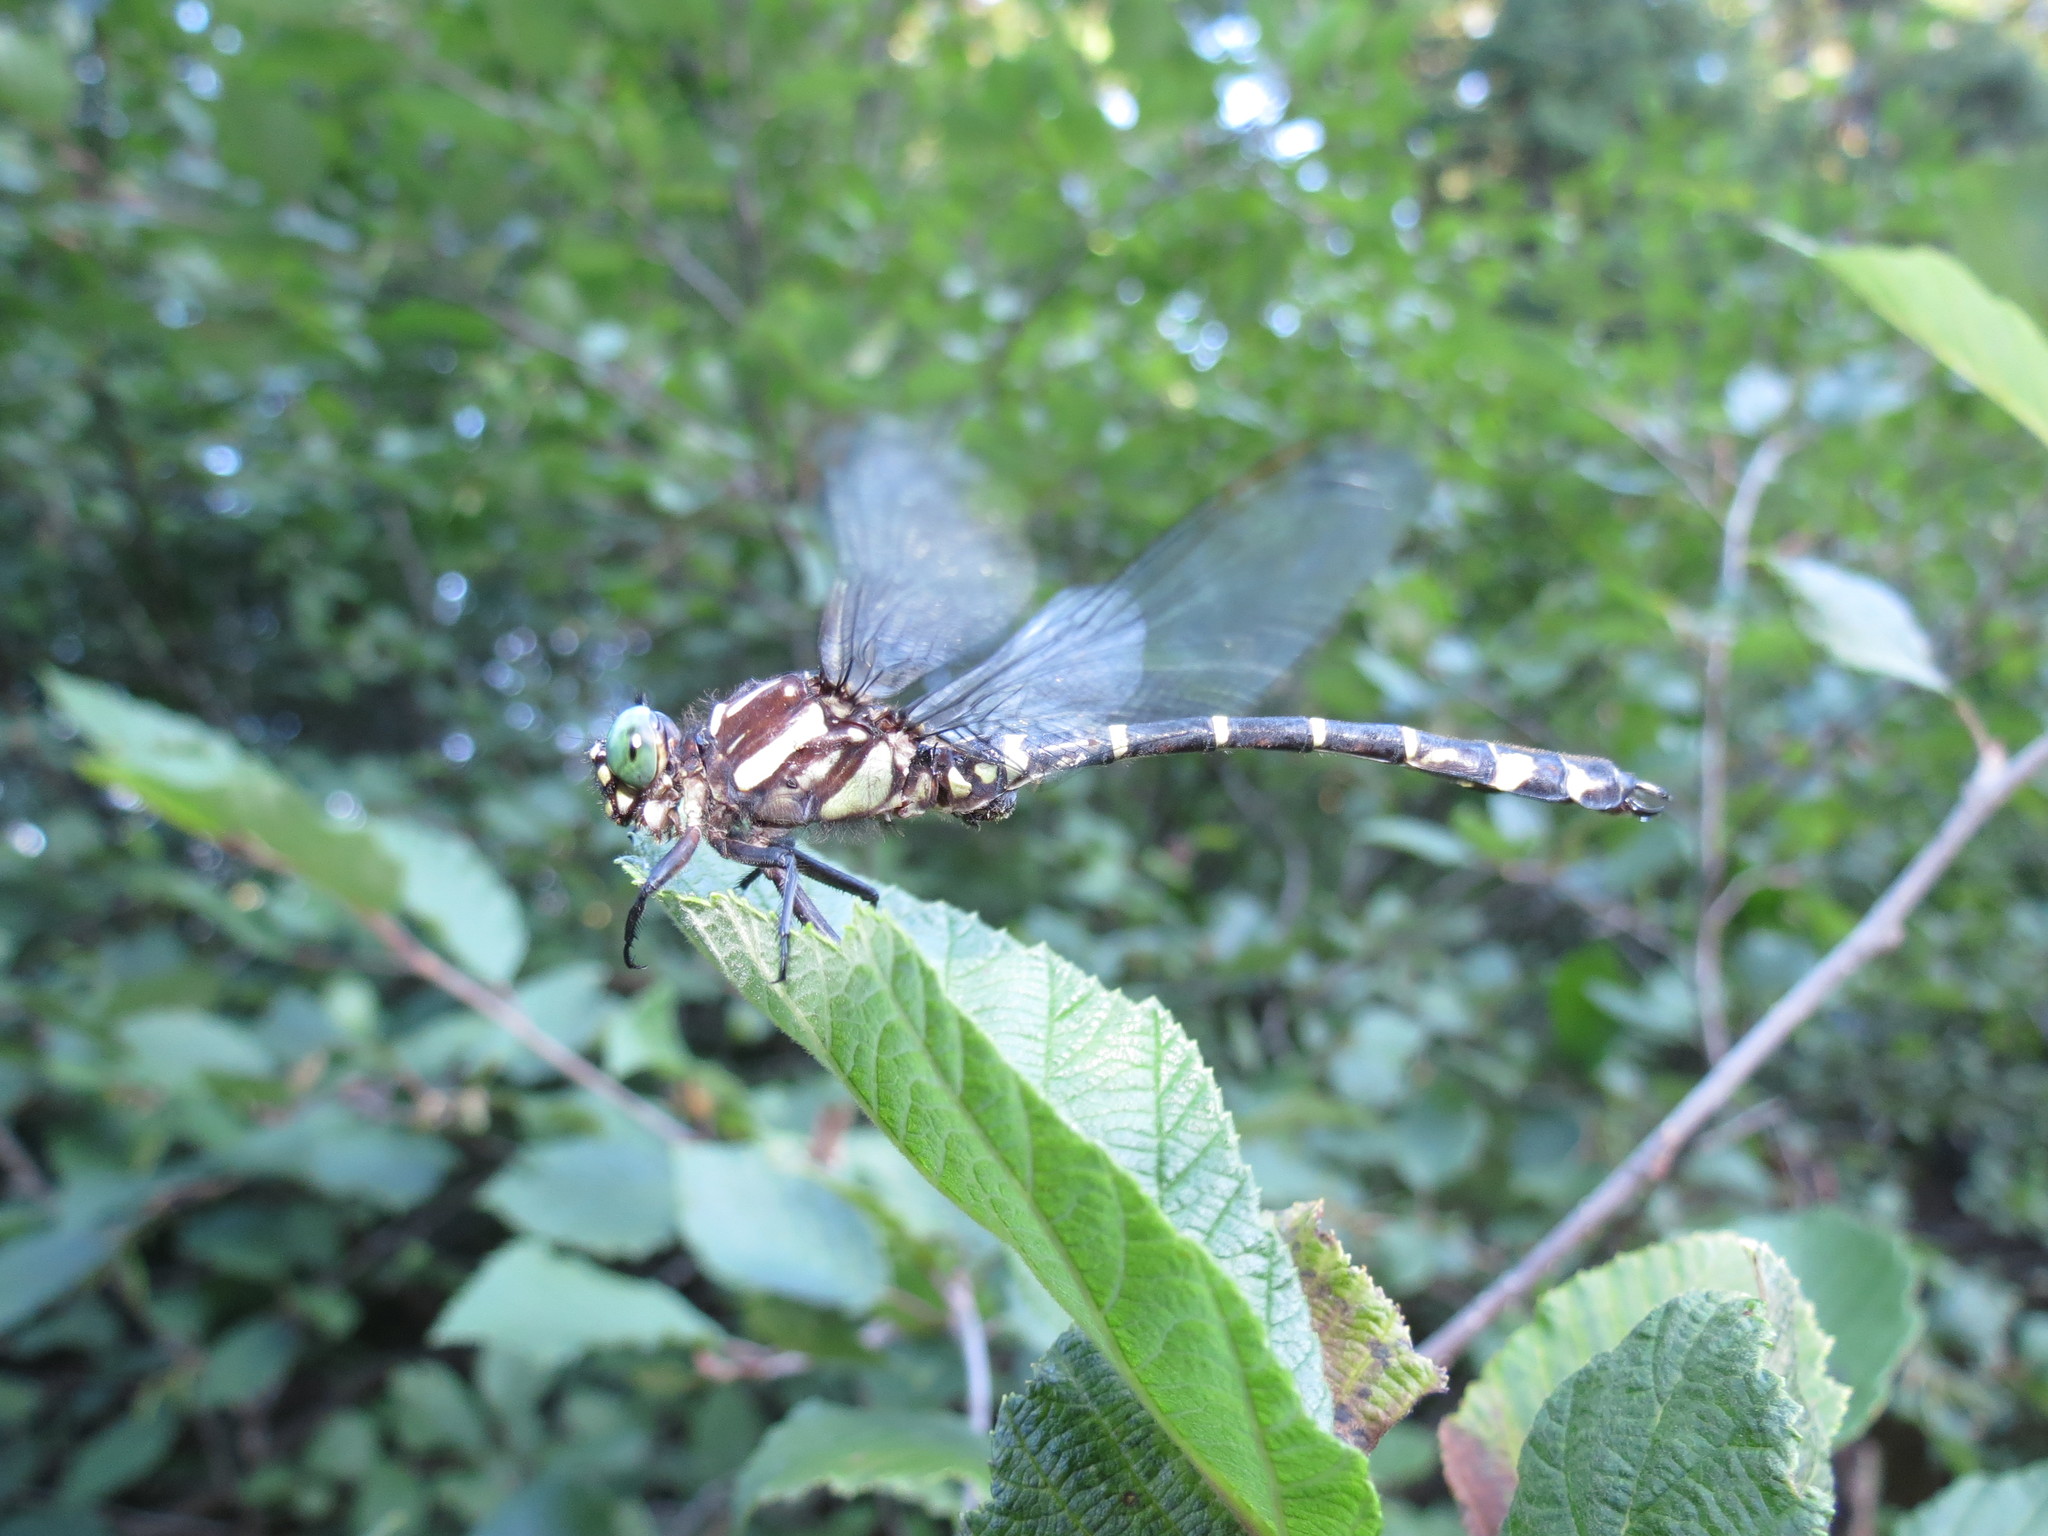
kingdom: Animalia
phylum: Arthropoda
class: Insecta
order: Odonata
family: Gomphidae
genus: Stylurus
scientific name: Stylurus scudderi
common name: Zebra clubtail
